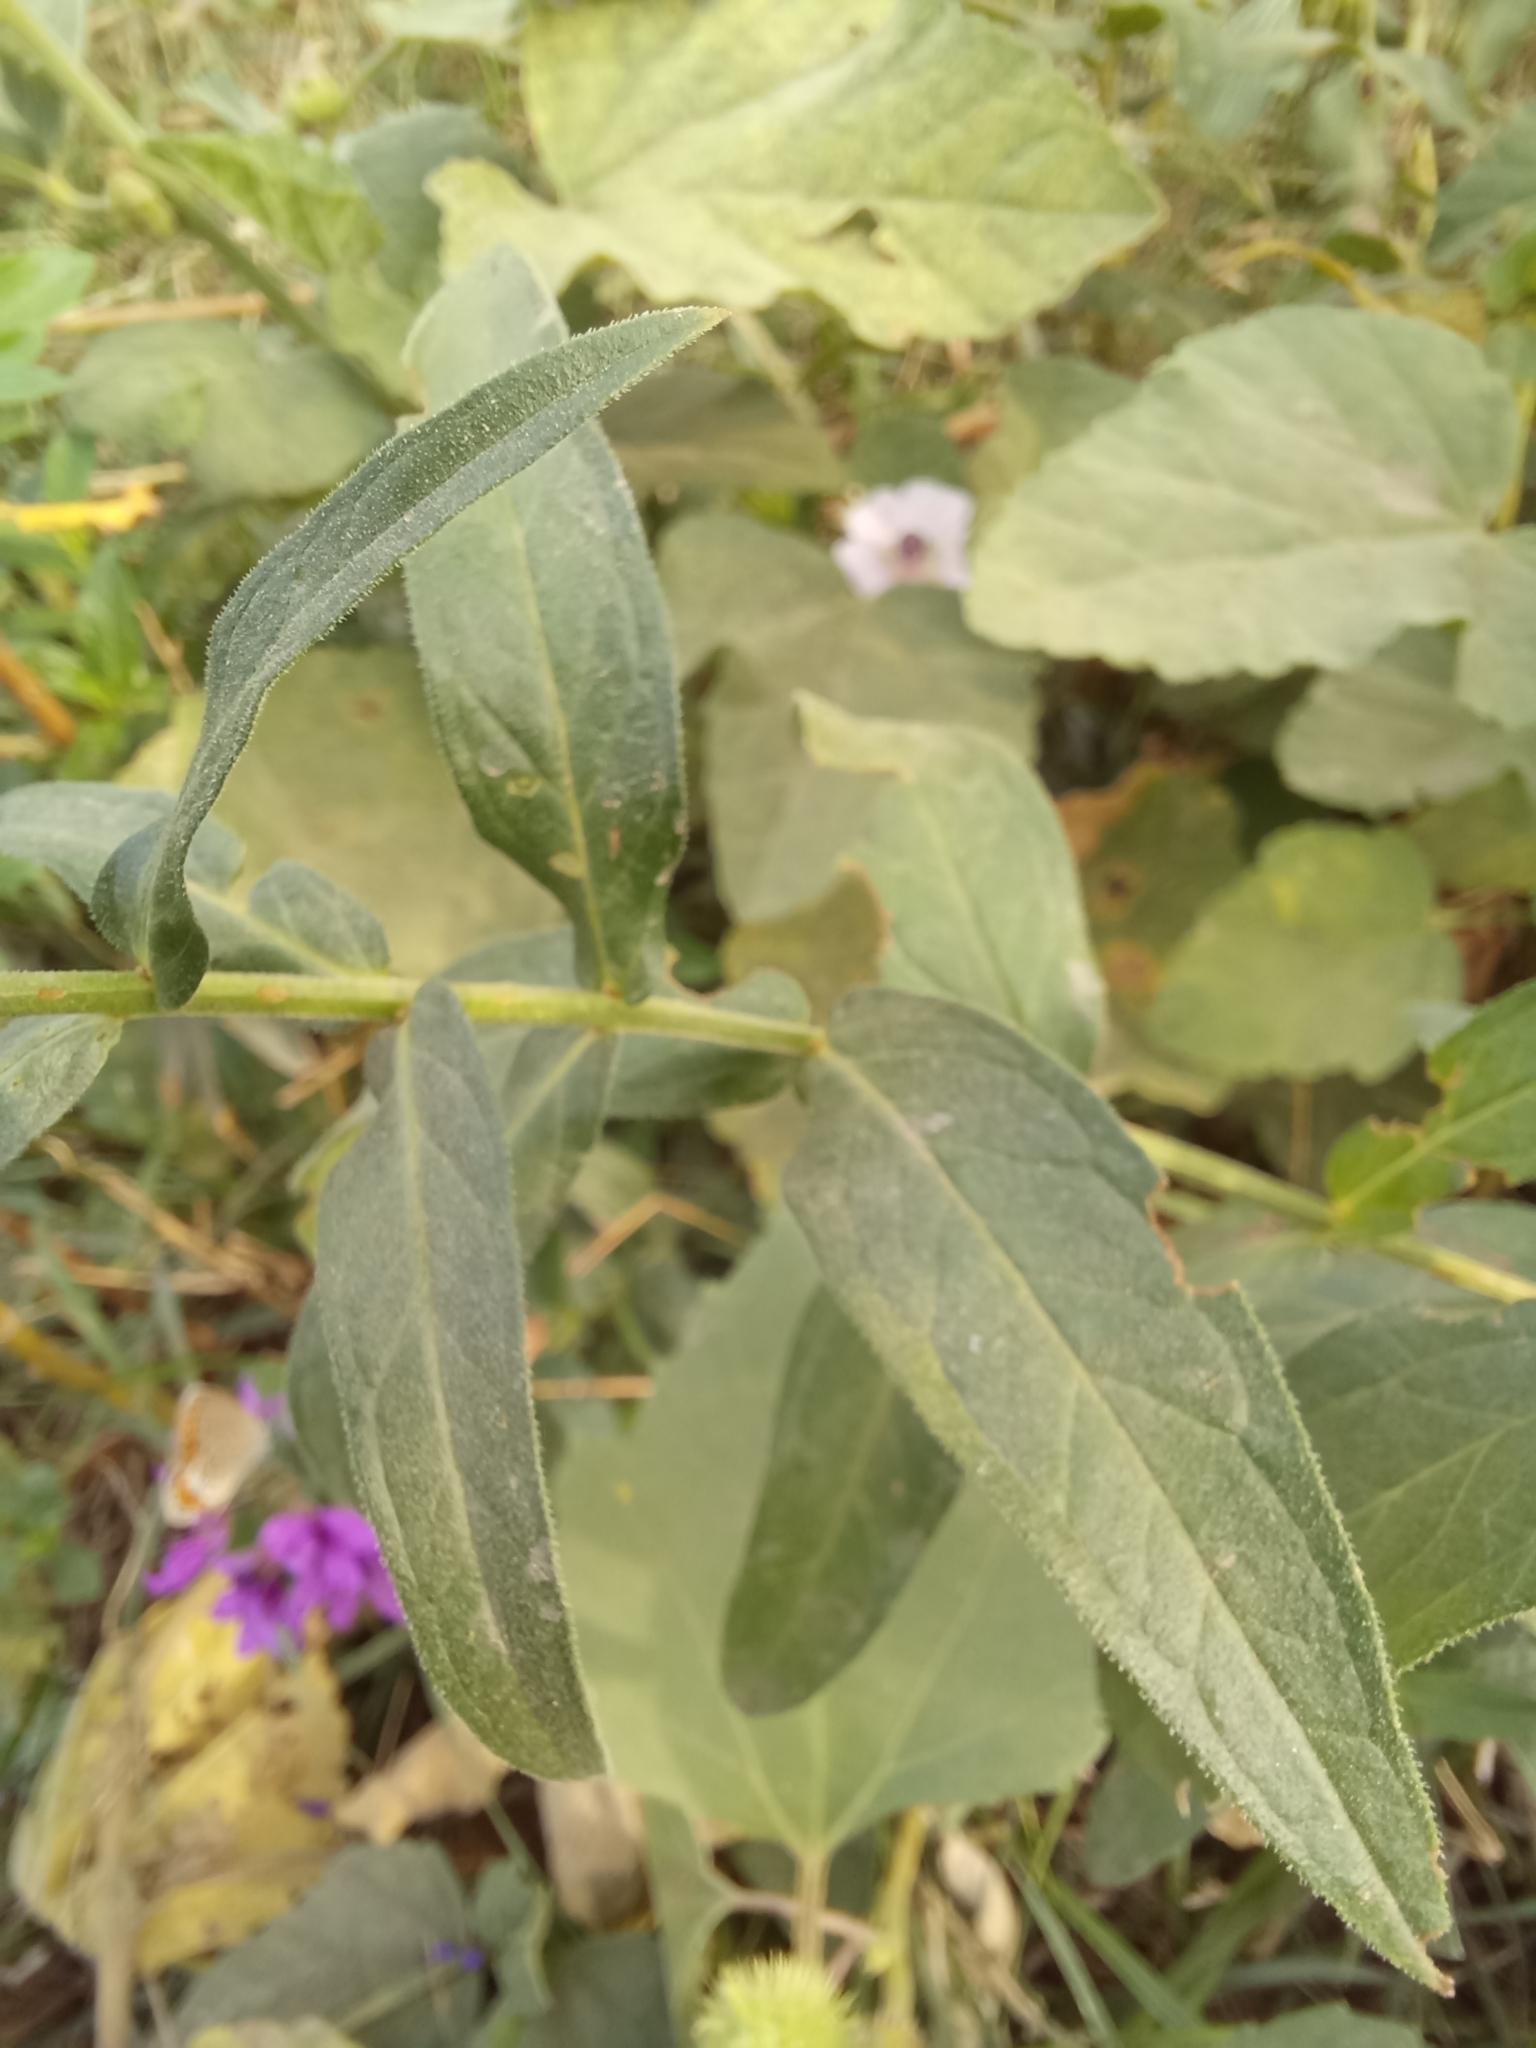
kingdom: Plantae
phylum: Tracheophyta
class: Magnoliopsida
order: Myrtales
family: Lythraceae
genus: Lythrum
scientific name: Lythrum salicaria
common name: Purple loosestrife
